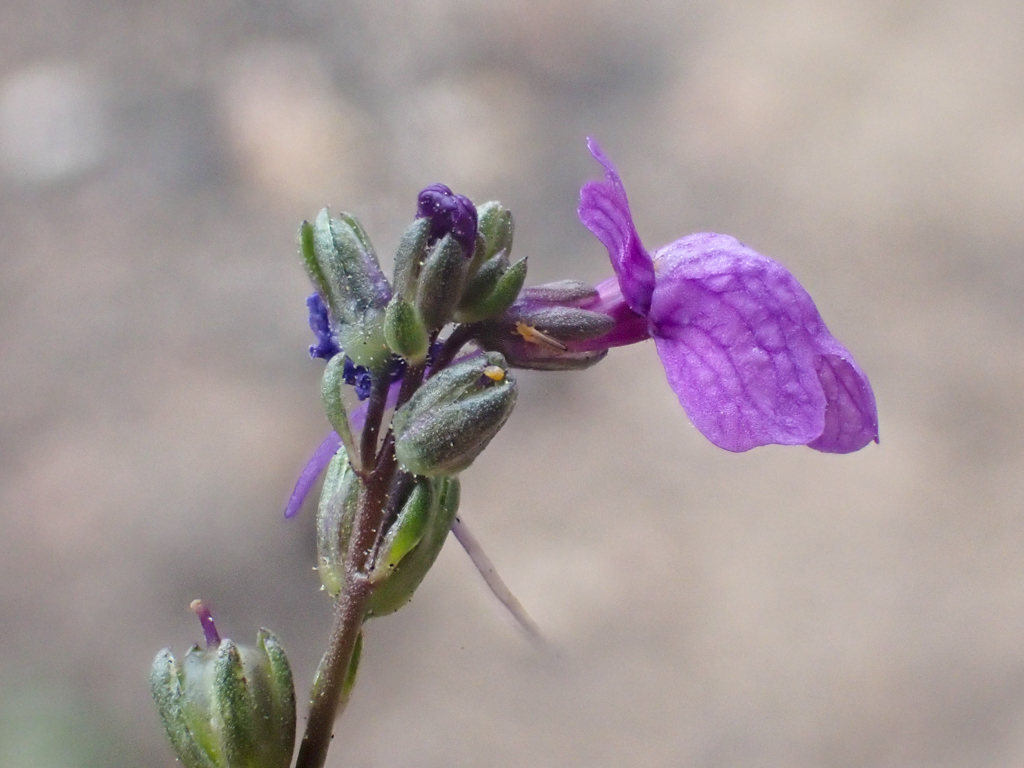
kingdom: Plantae
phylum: Tracheophyta
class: Magnoliopsida
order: Lamiales
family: Plantaginaceae
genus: Nuttallanthus
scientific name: Nuttallanthus texanus
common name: Texas toadflax
